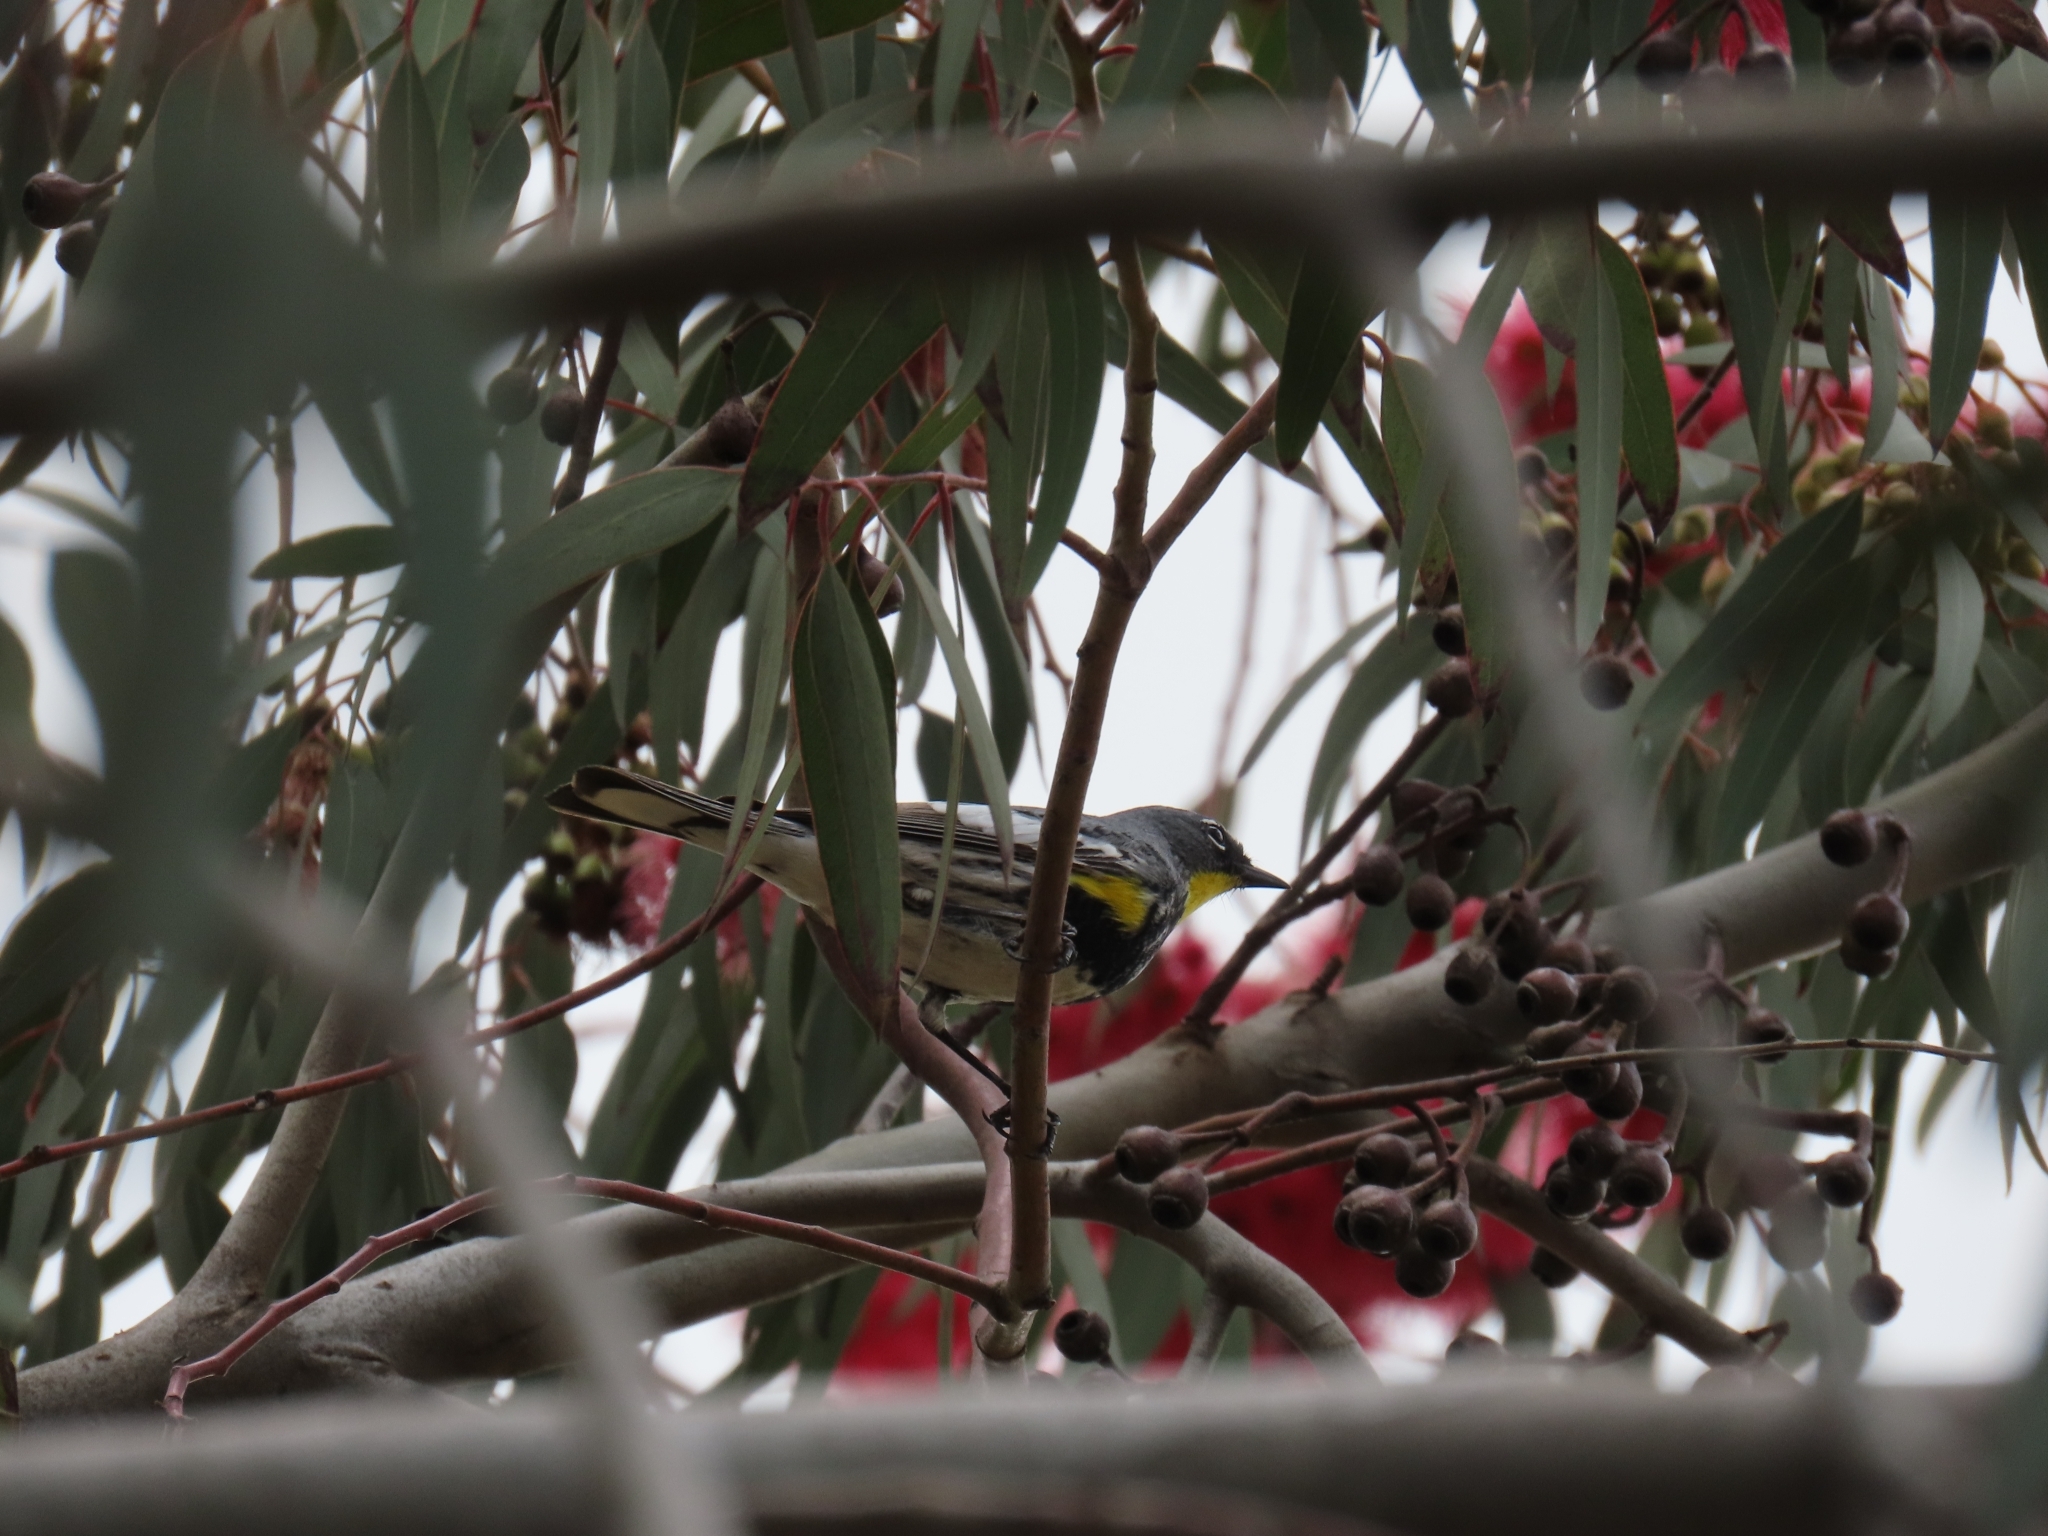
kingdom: Animalia
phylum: Chordata
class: Aves
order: Passeriformes
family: Parulidae
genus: Setophaga
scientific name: Setophaga auduboni
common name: Audubon's warbler
